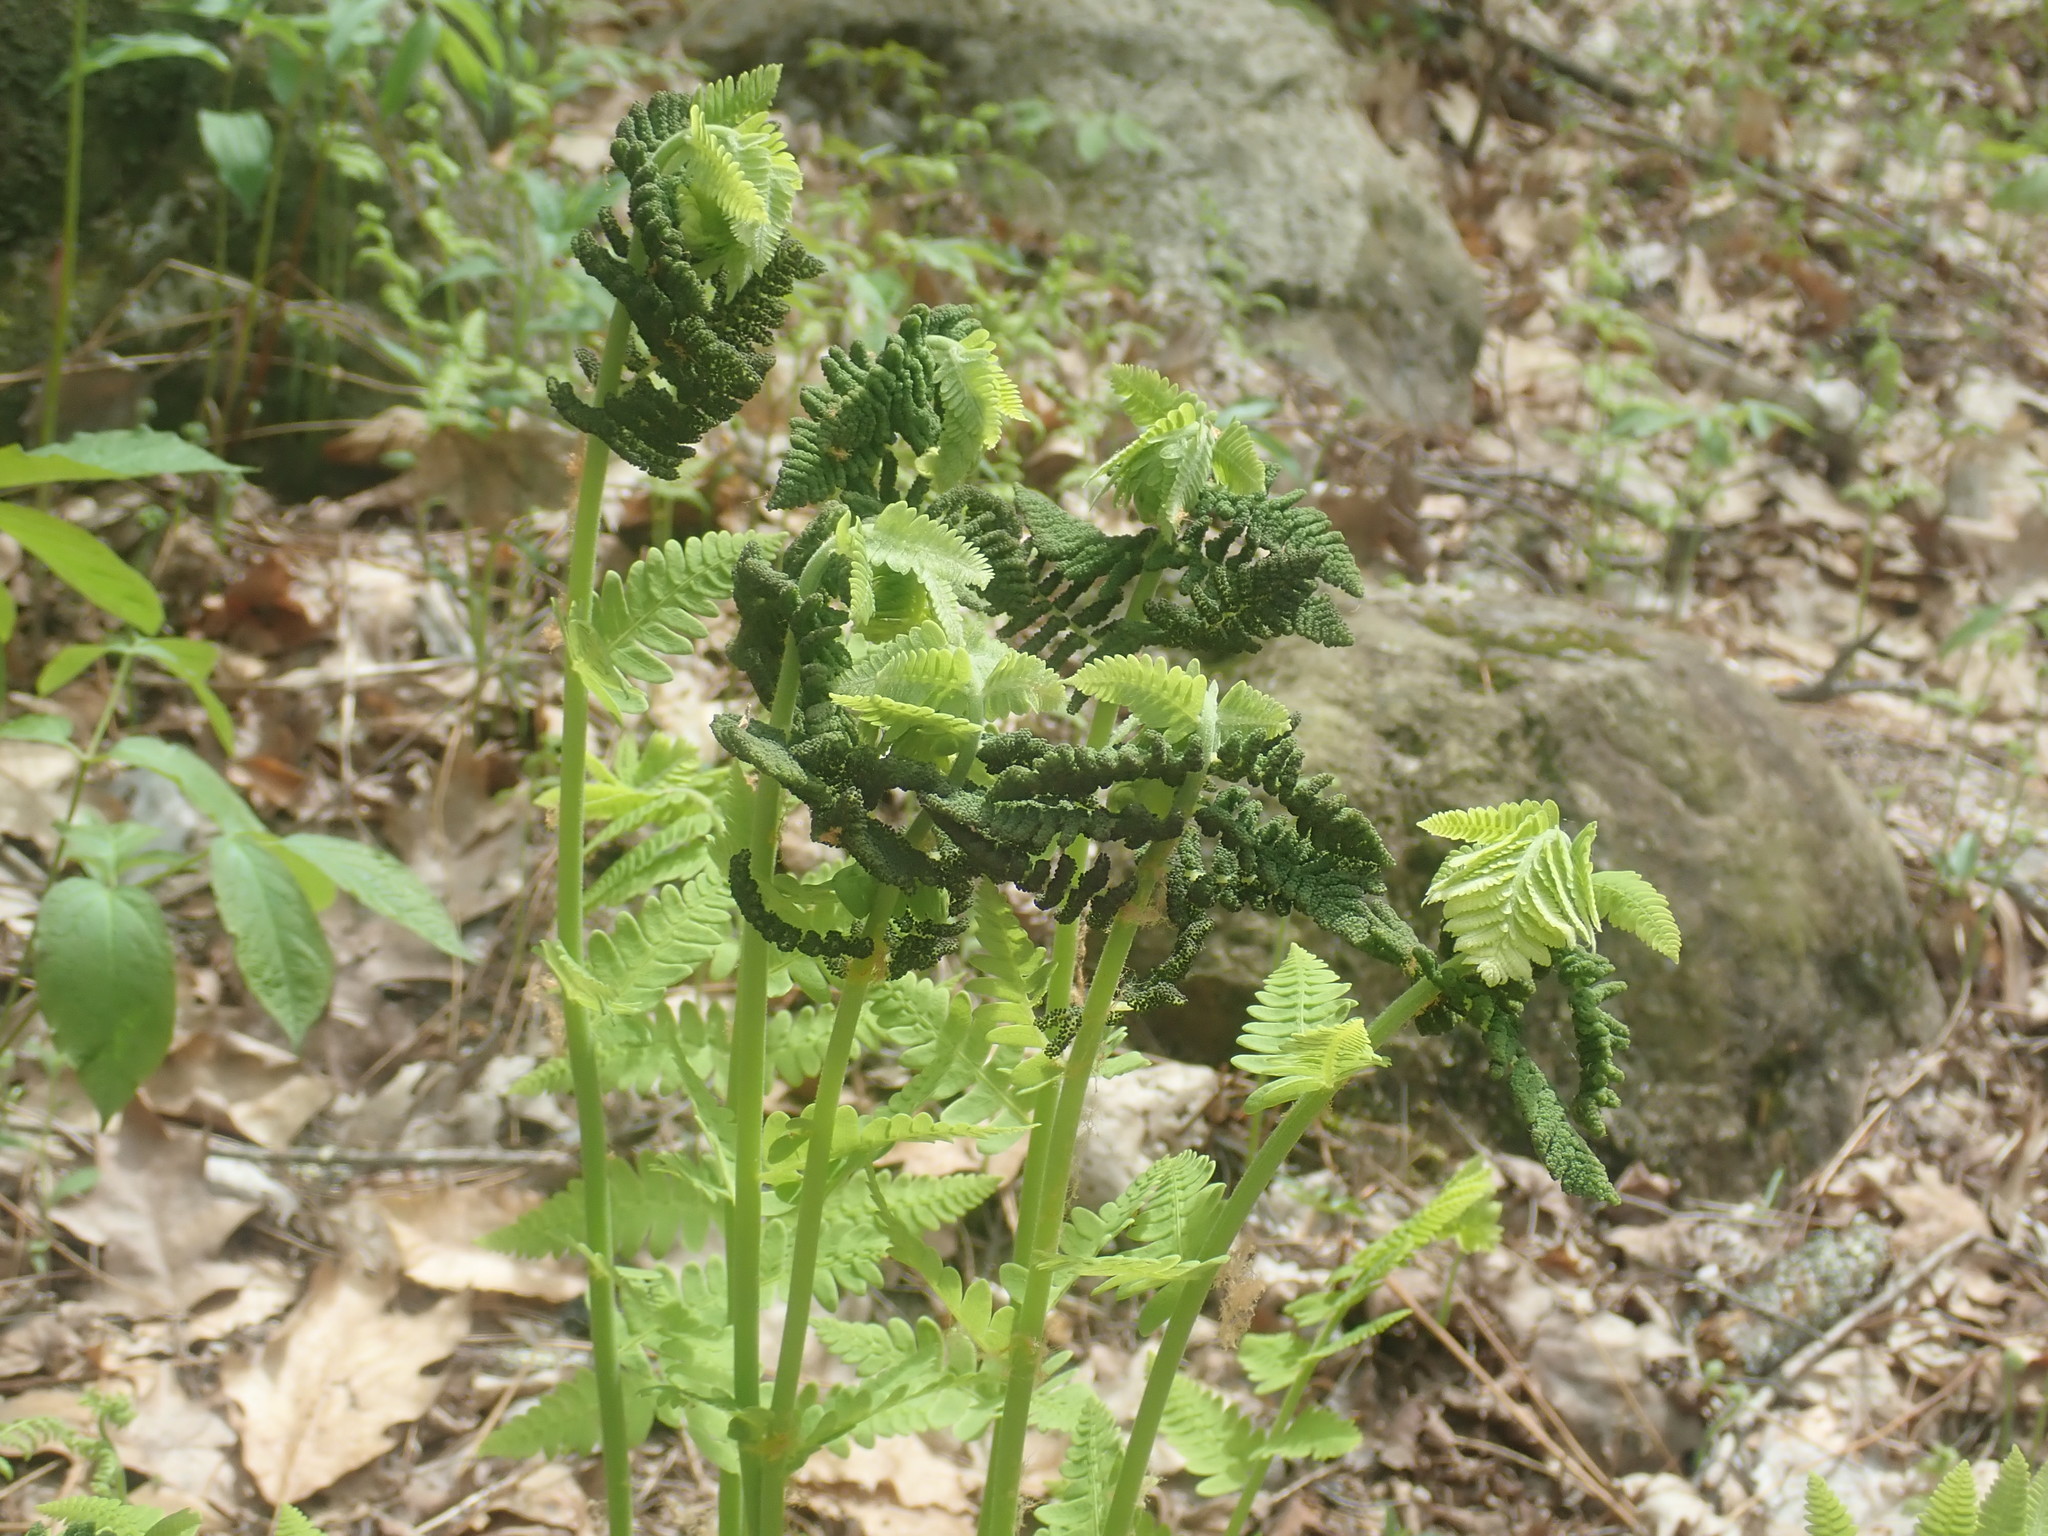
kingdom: Plantae
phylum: Tracheophyta
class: Polypodiopsida
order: Osmundales
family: Osmundaceae
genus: Claytosmunda
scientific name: Claytosmunda claytoniana
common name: Clayton's fern
